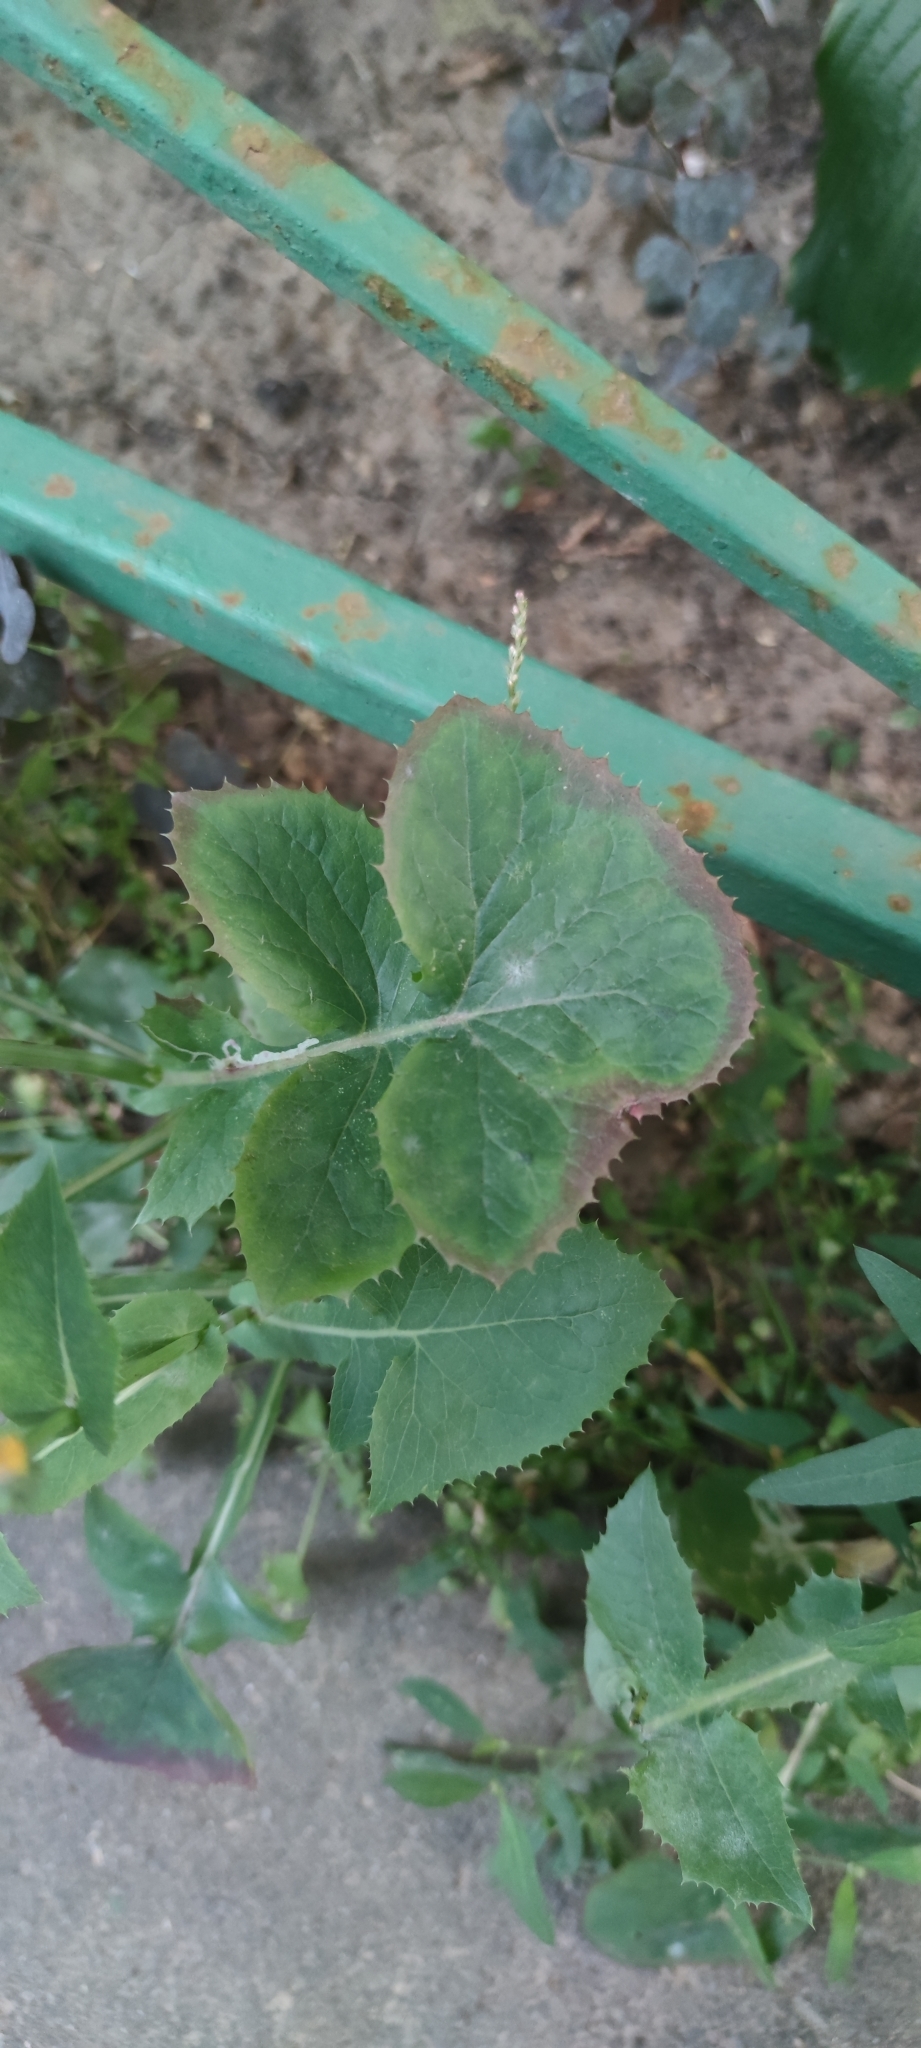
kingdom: Plantae
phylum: Tracheophyta
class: Magnoliopsida
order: Asterales
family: Asteraceae
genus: Sonchus
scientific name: Sonchus oleraceus
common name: Common sowthistle
